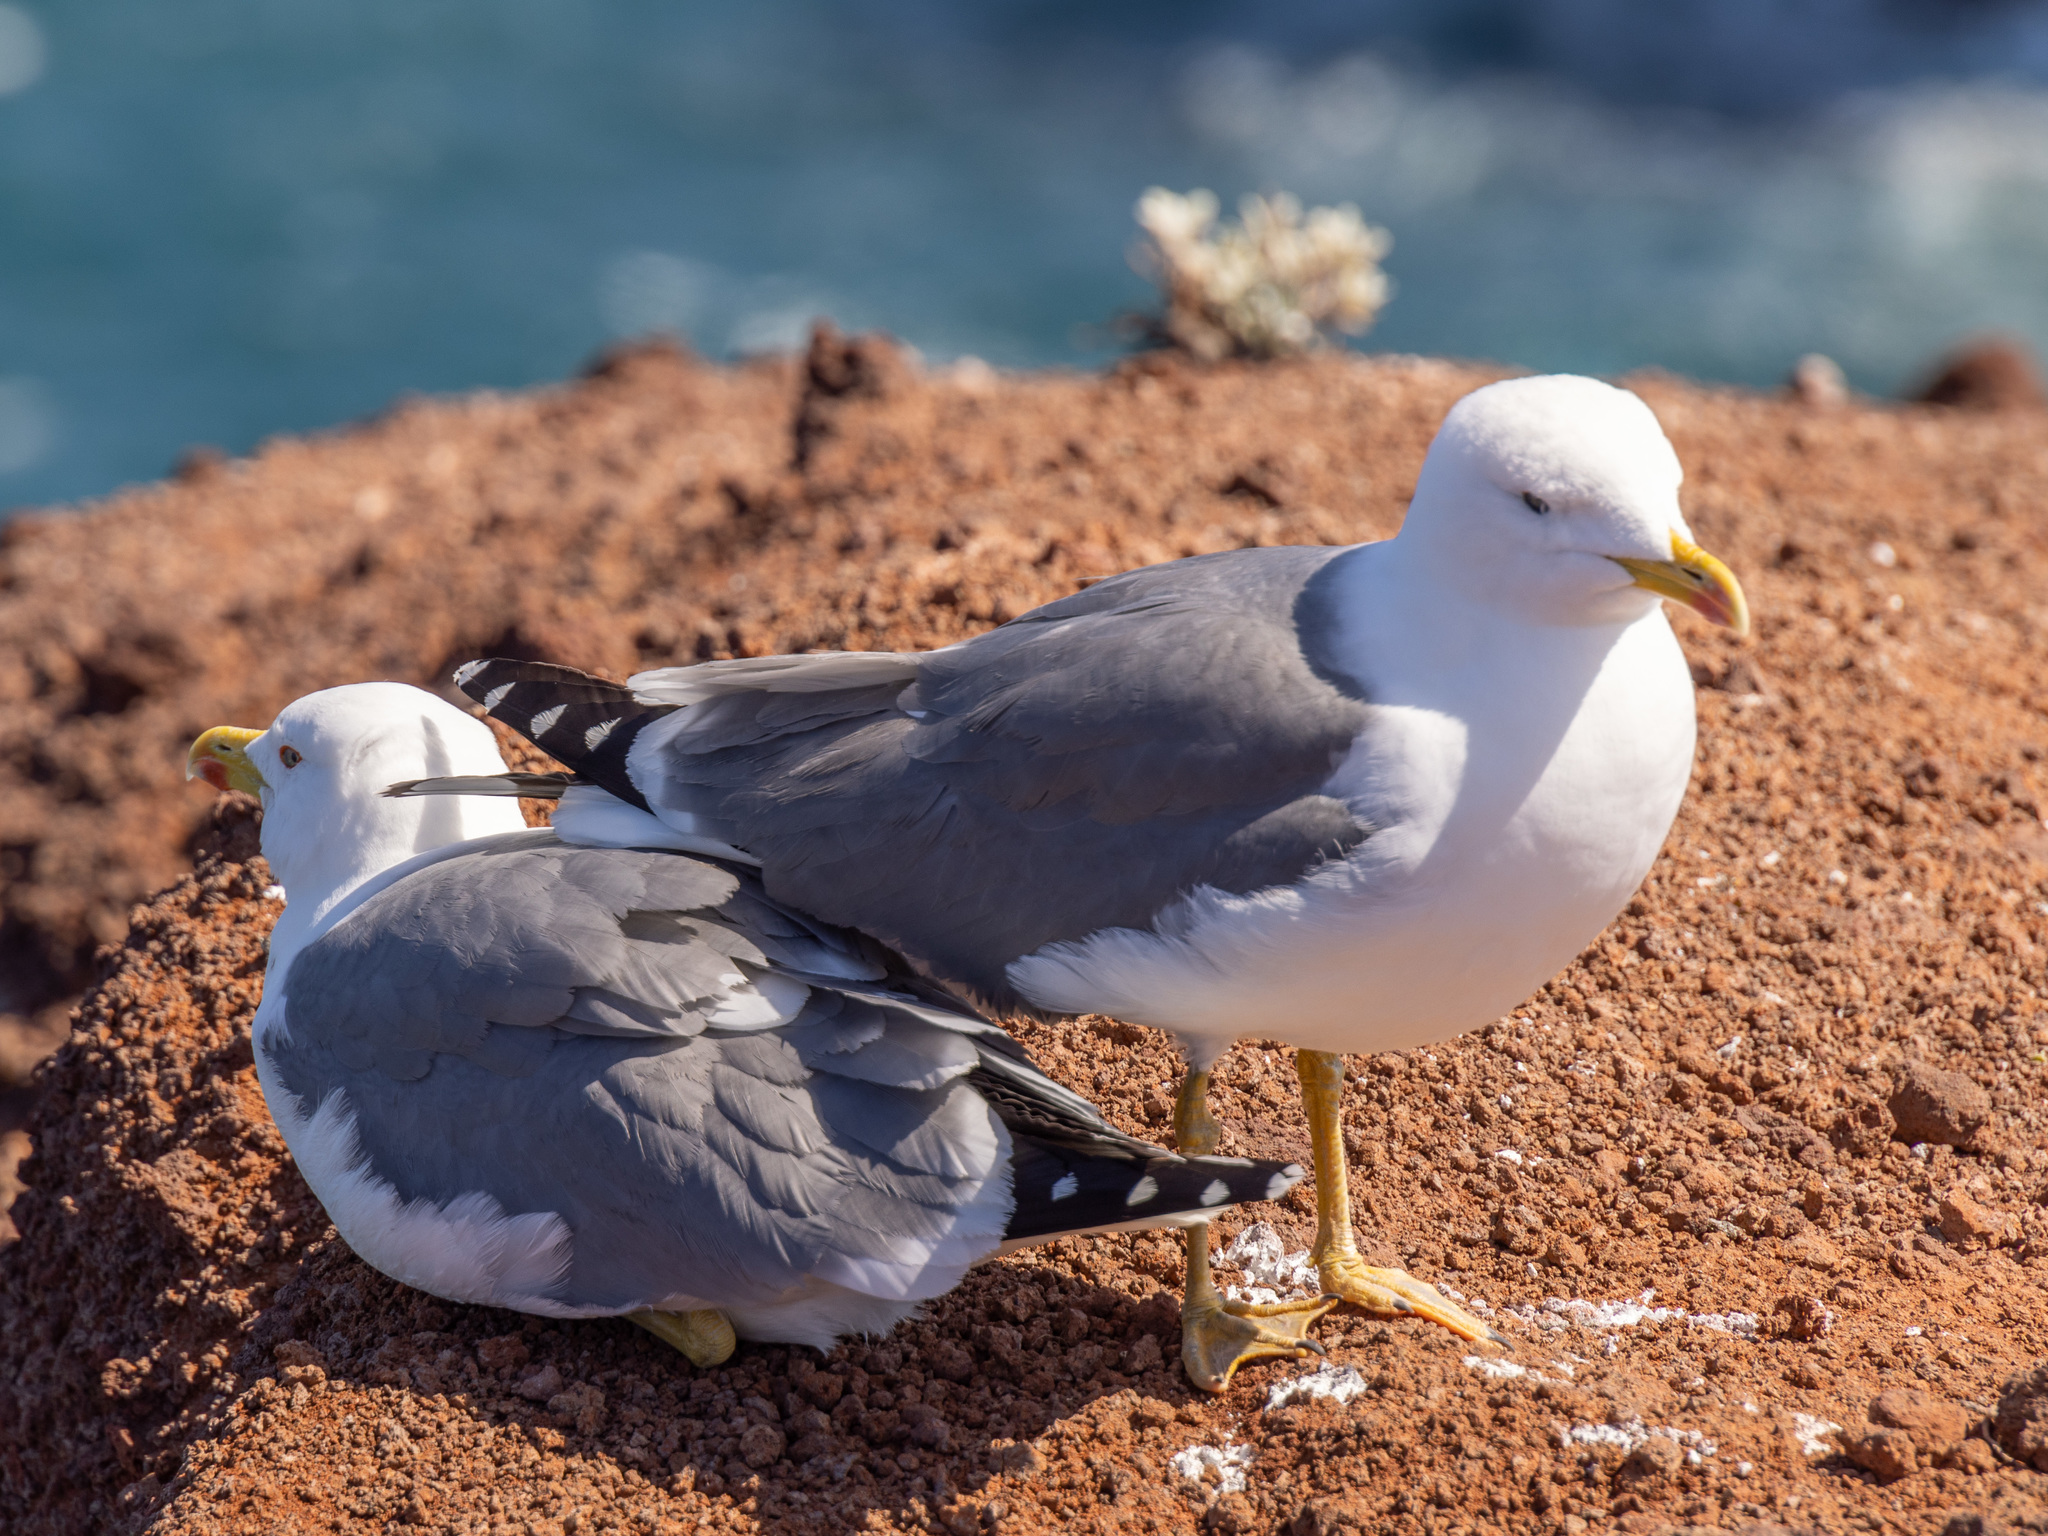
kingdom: Animalia
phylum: Chordata
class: Aves
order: Charadriiformes
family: Laridae
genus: Larus
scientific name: Larus michahellis
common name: Yellow-legged gull
